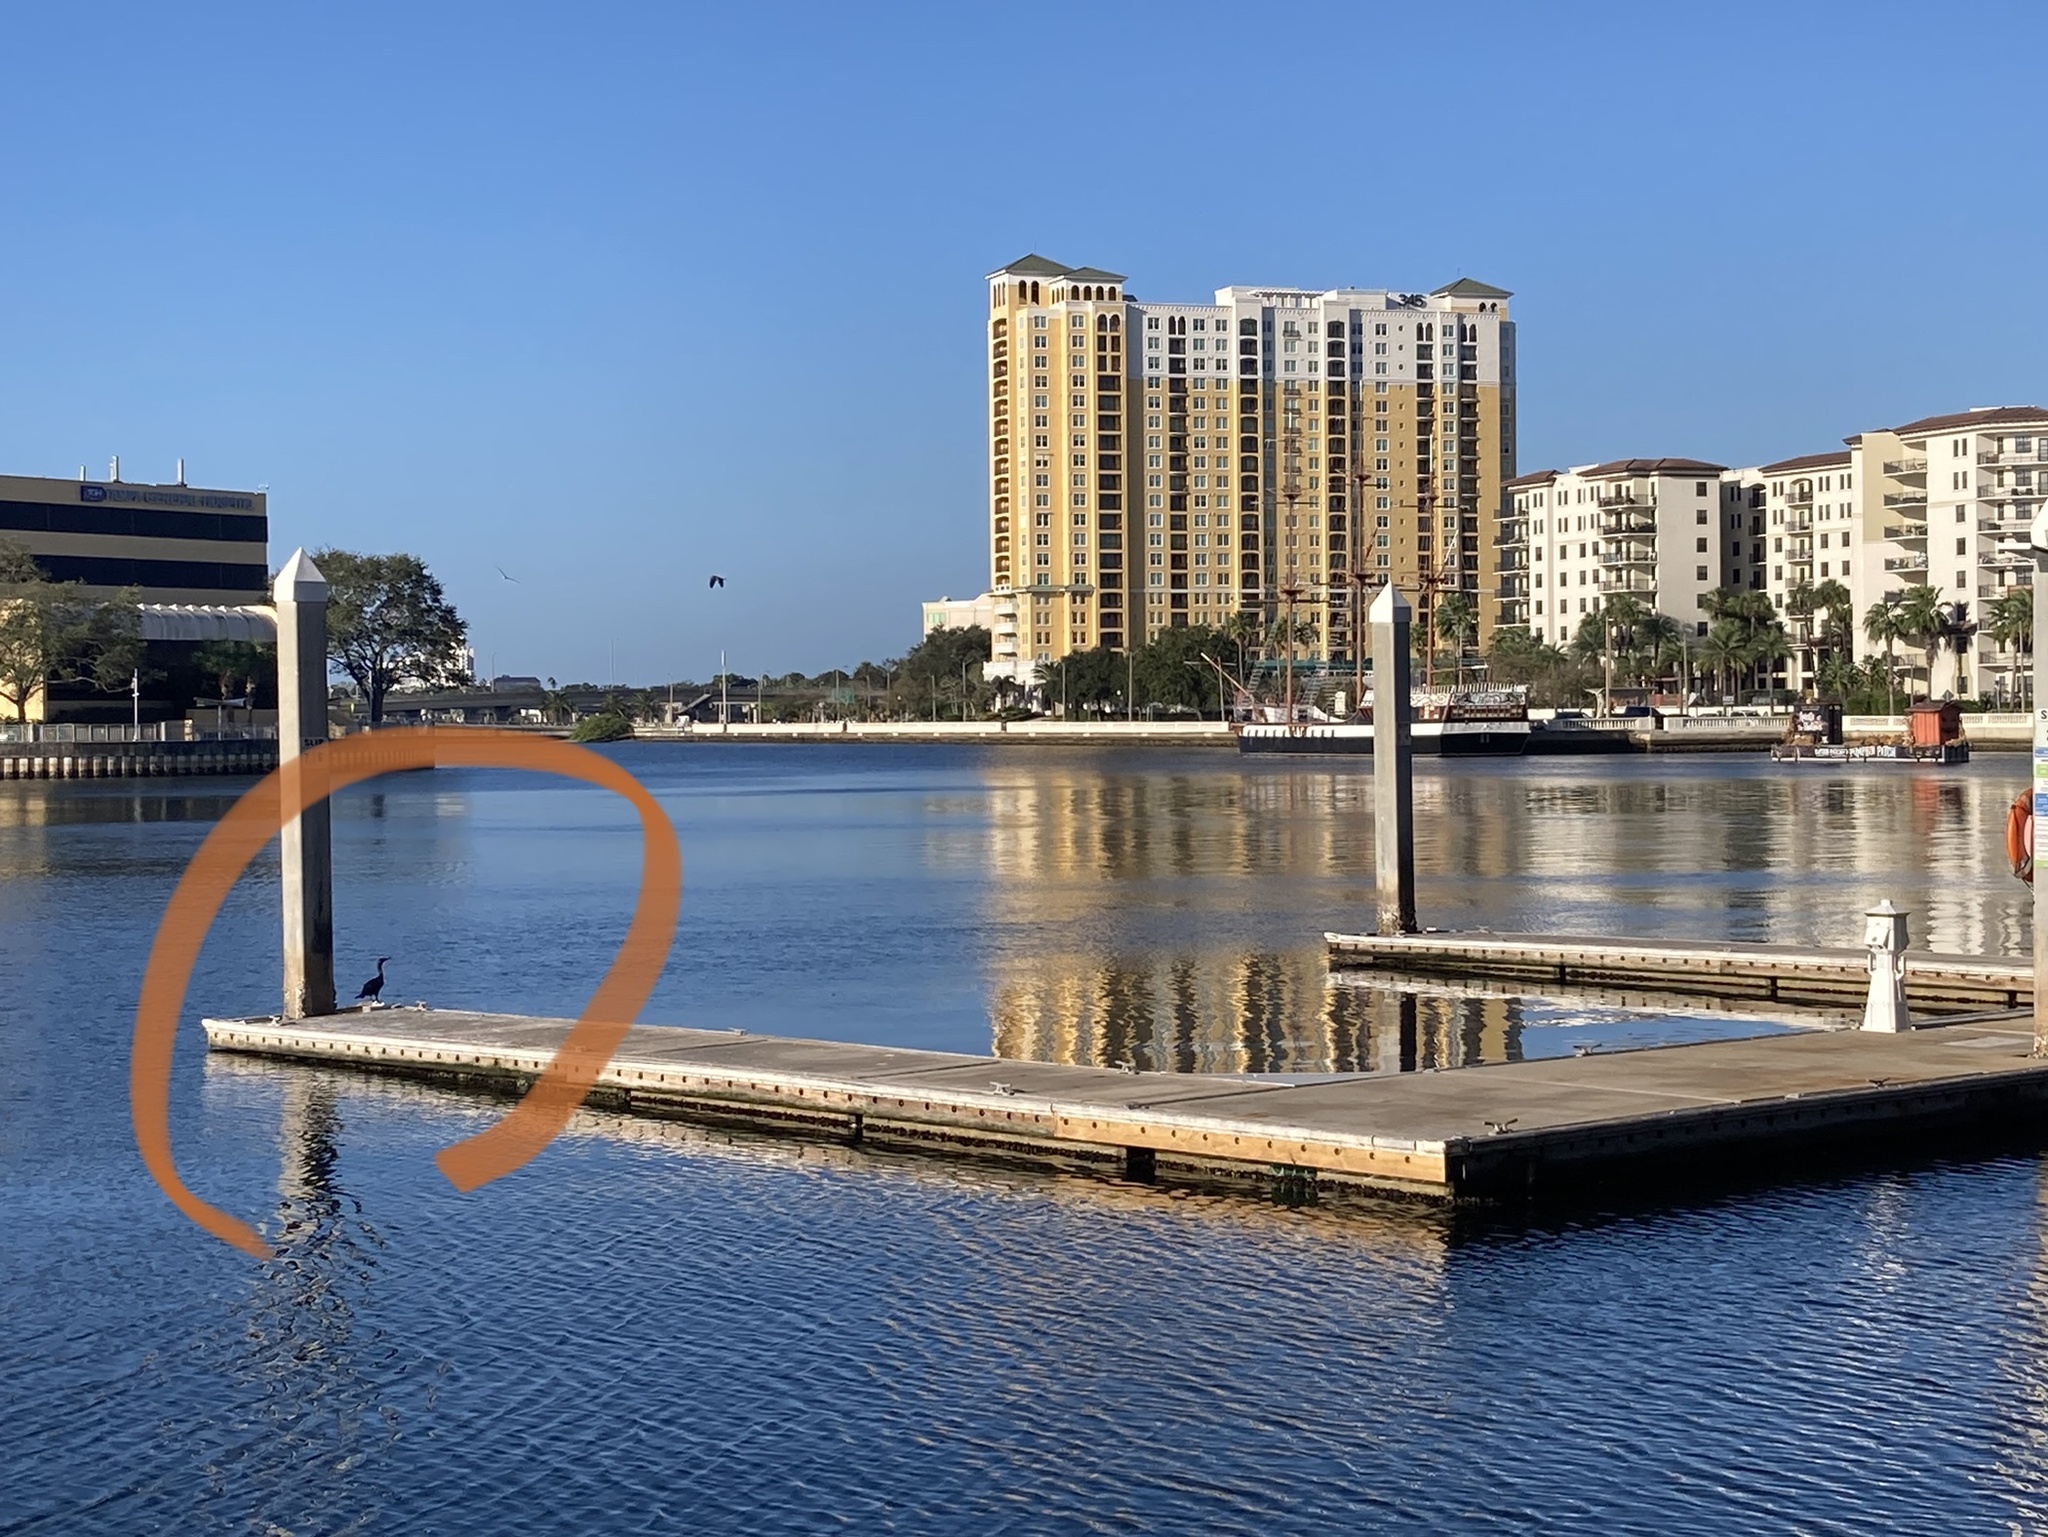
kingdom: Animalia
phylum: Chordata
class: Aves
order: Suliformes
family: Phalacrocoracidae
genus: Phalacrocorax
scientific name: Phalacrocorax auritus
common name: Double-crested cormorant
